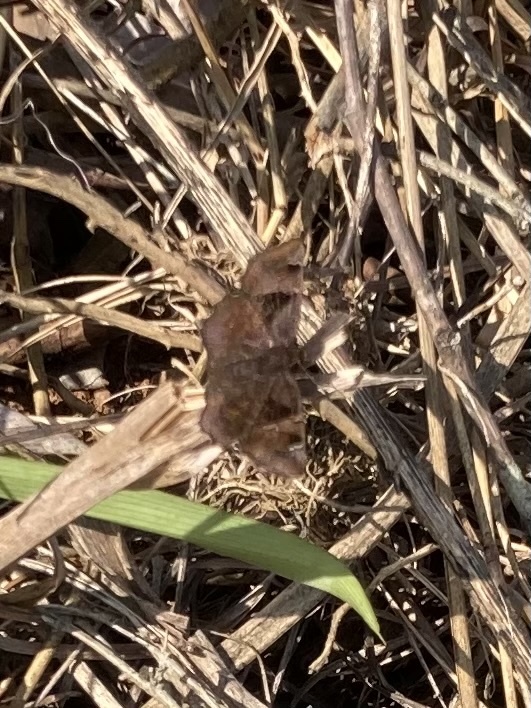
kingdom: Animalia
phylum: Arthropoda
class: Insecta
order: Lepidoptera
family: Hesperiidae
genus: Eretis
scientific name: Eretis umbra
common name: Small marbled elf
